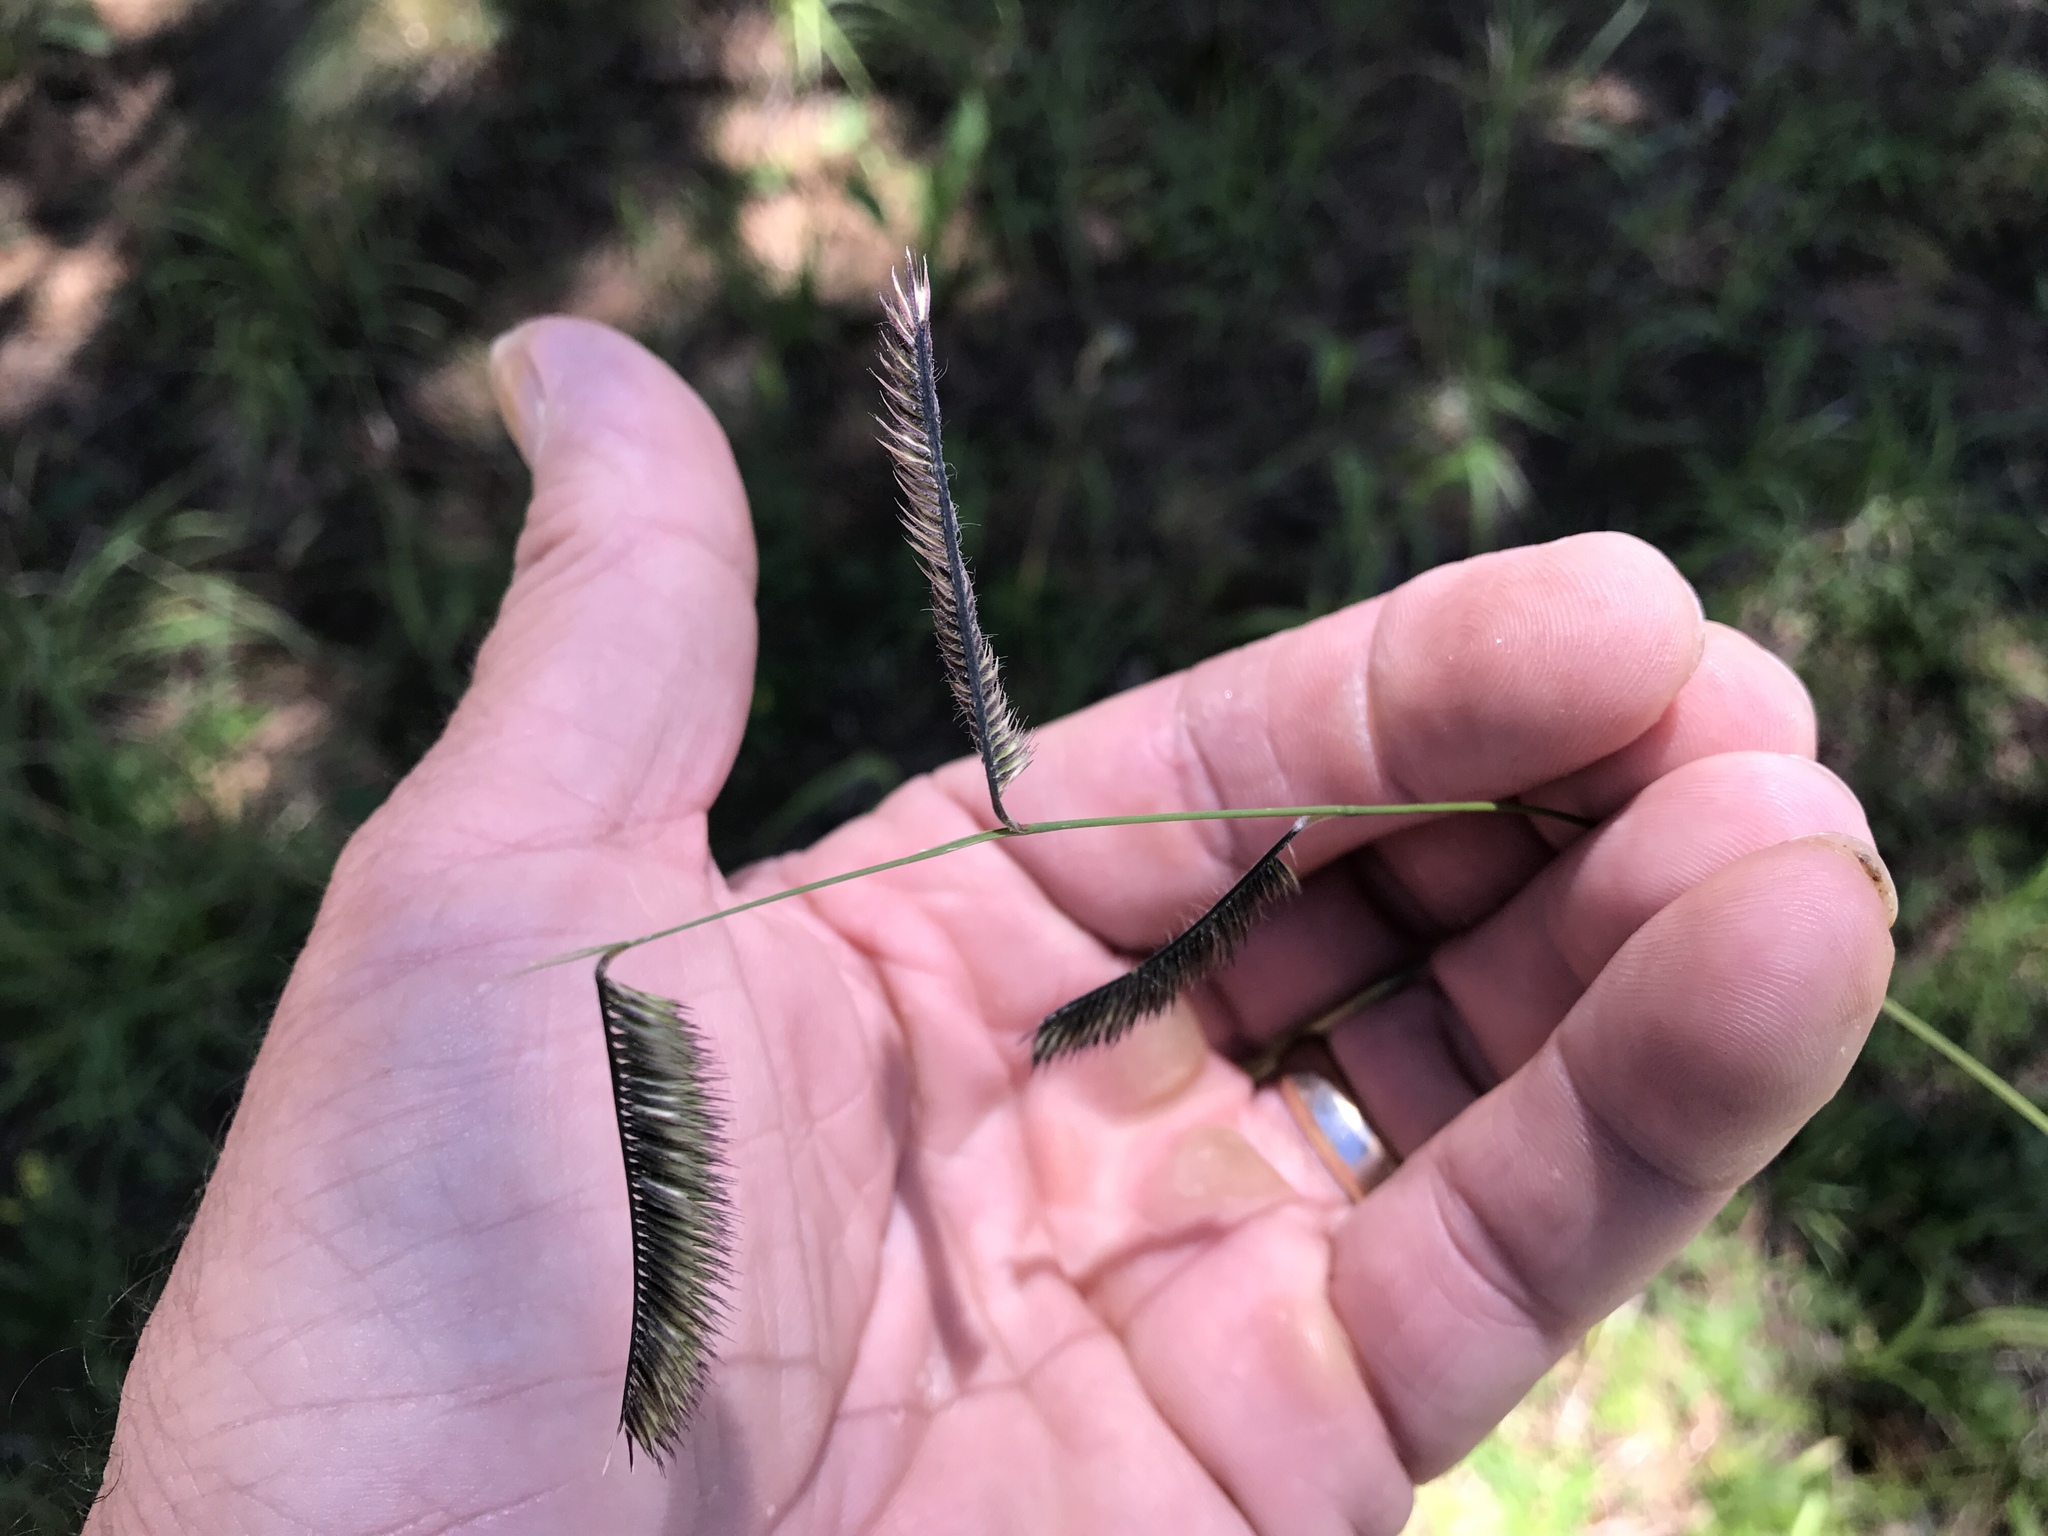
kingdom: Plantae
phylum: Tracheophyta
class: Liliopsida
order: Poales
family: Poaceae
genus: Bouteloua
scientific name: Bouteloua gracilis
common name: Blue grama
